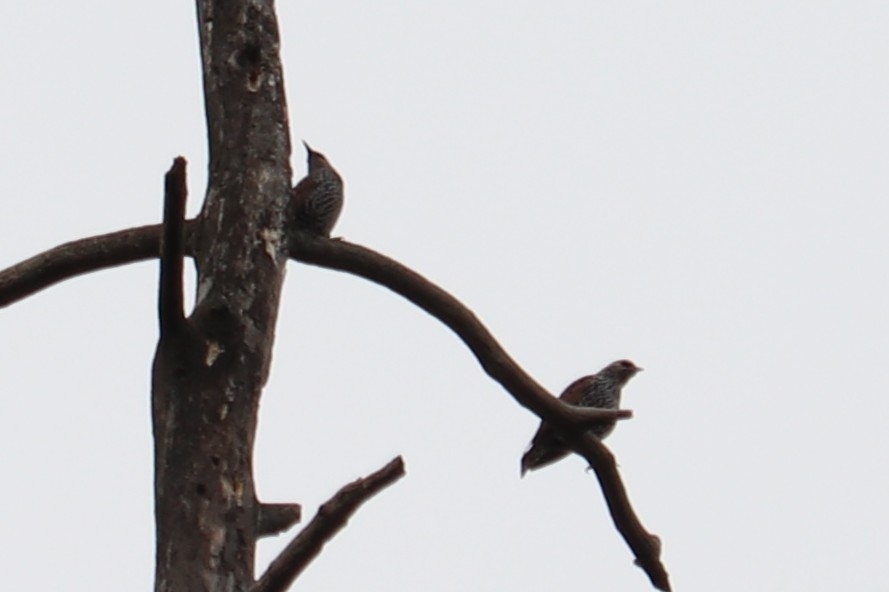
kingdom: Animalia
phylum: Chordata
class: Aves
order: Passeriformes
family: Sturnidae
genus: Sturnus
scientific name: Sturnus vulgaris
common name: Common starling
